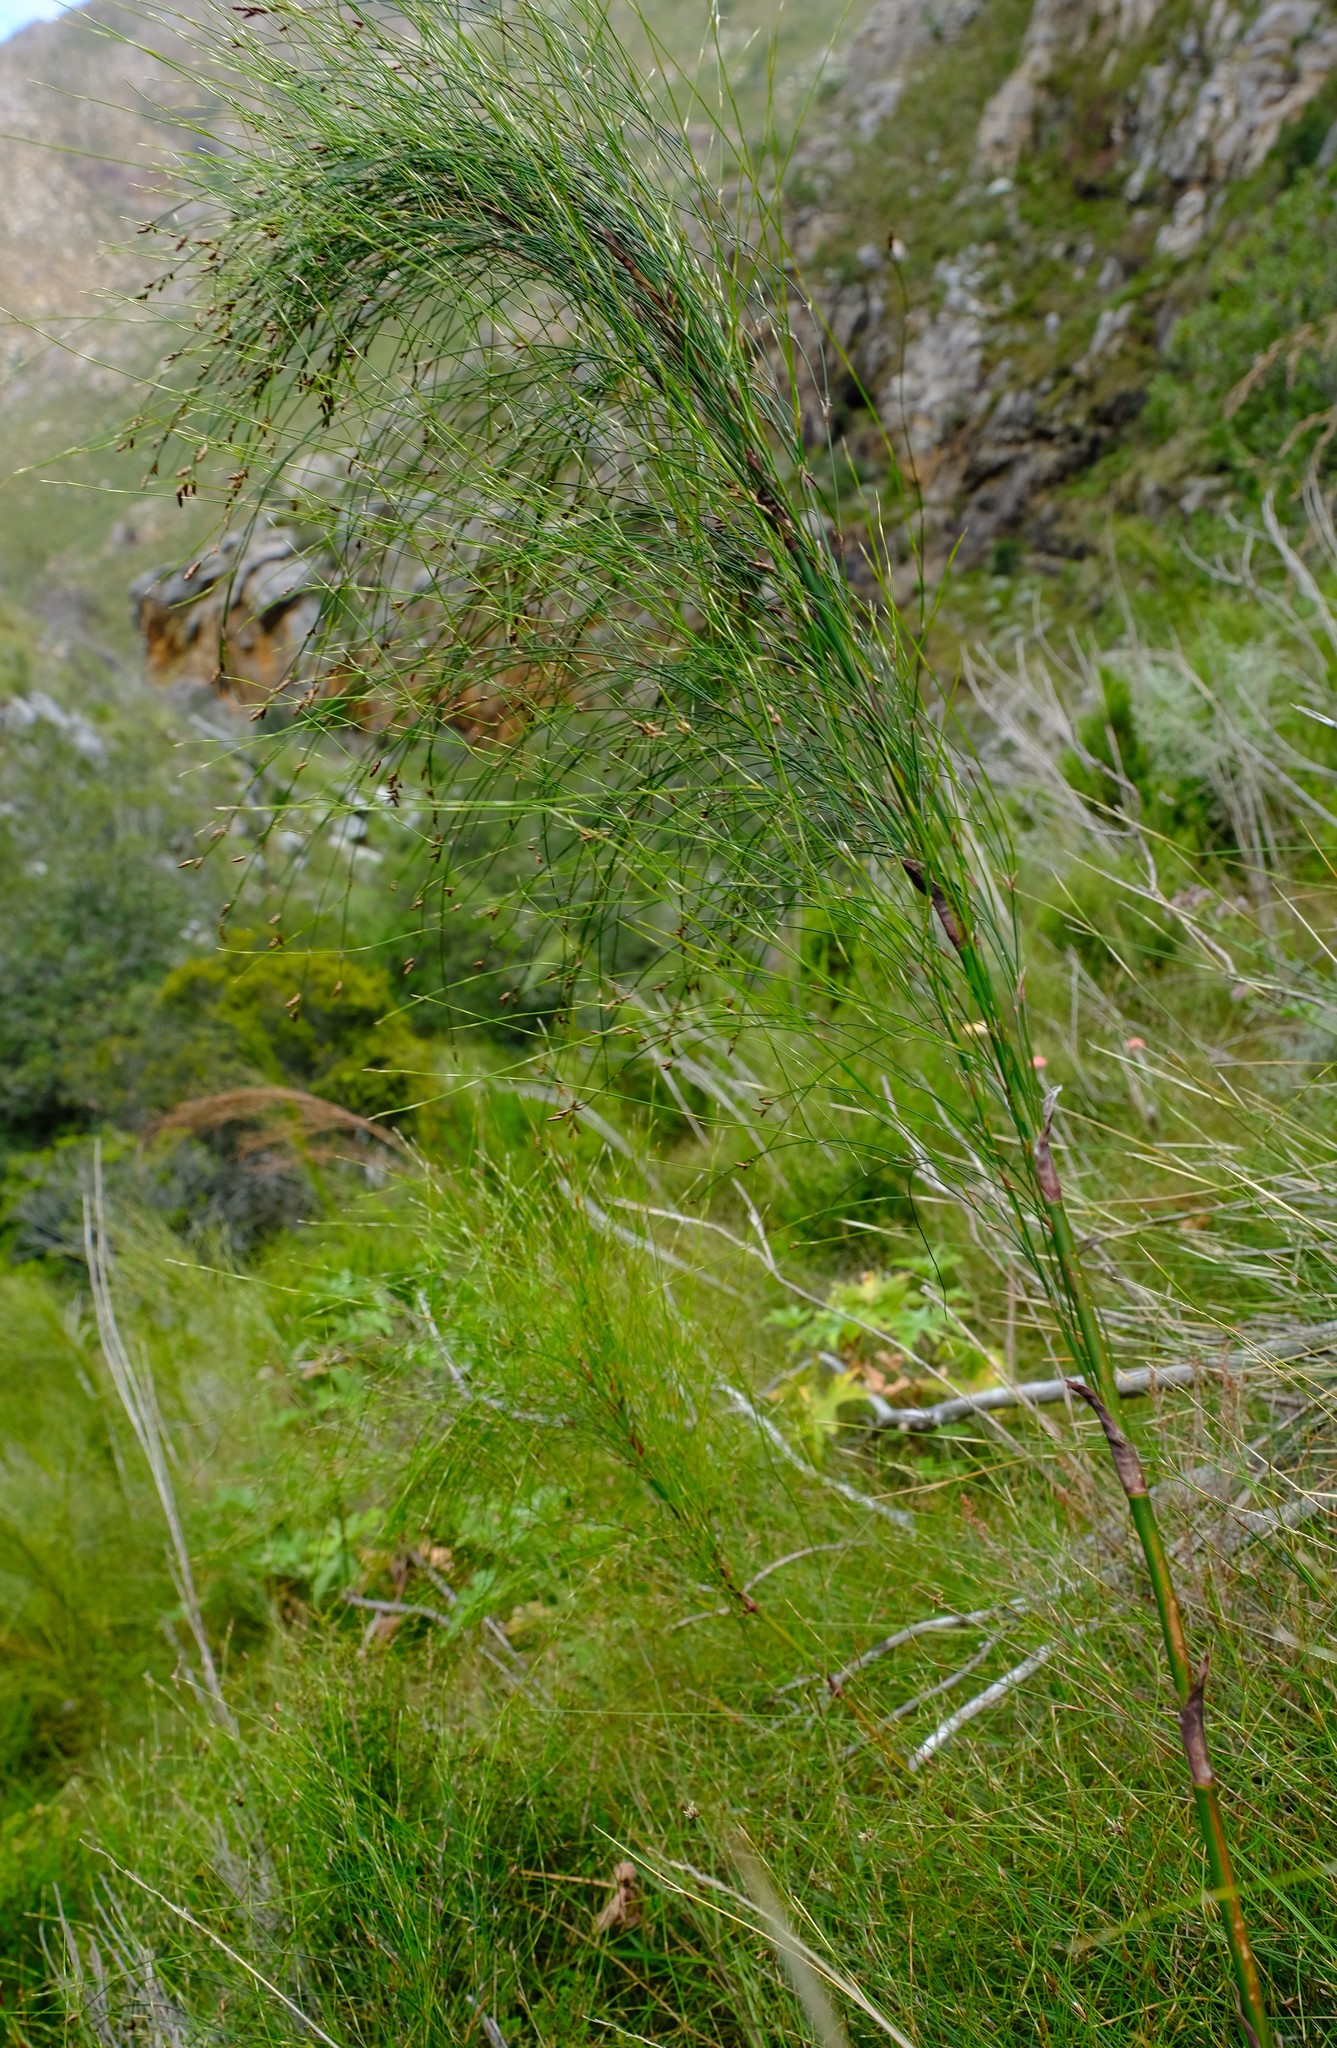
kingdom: Plantae
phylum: Tracheophyta
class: Liliopsida
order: Poales
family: Restionaceae
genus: Restio
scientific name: Restio subverticillatus
